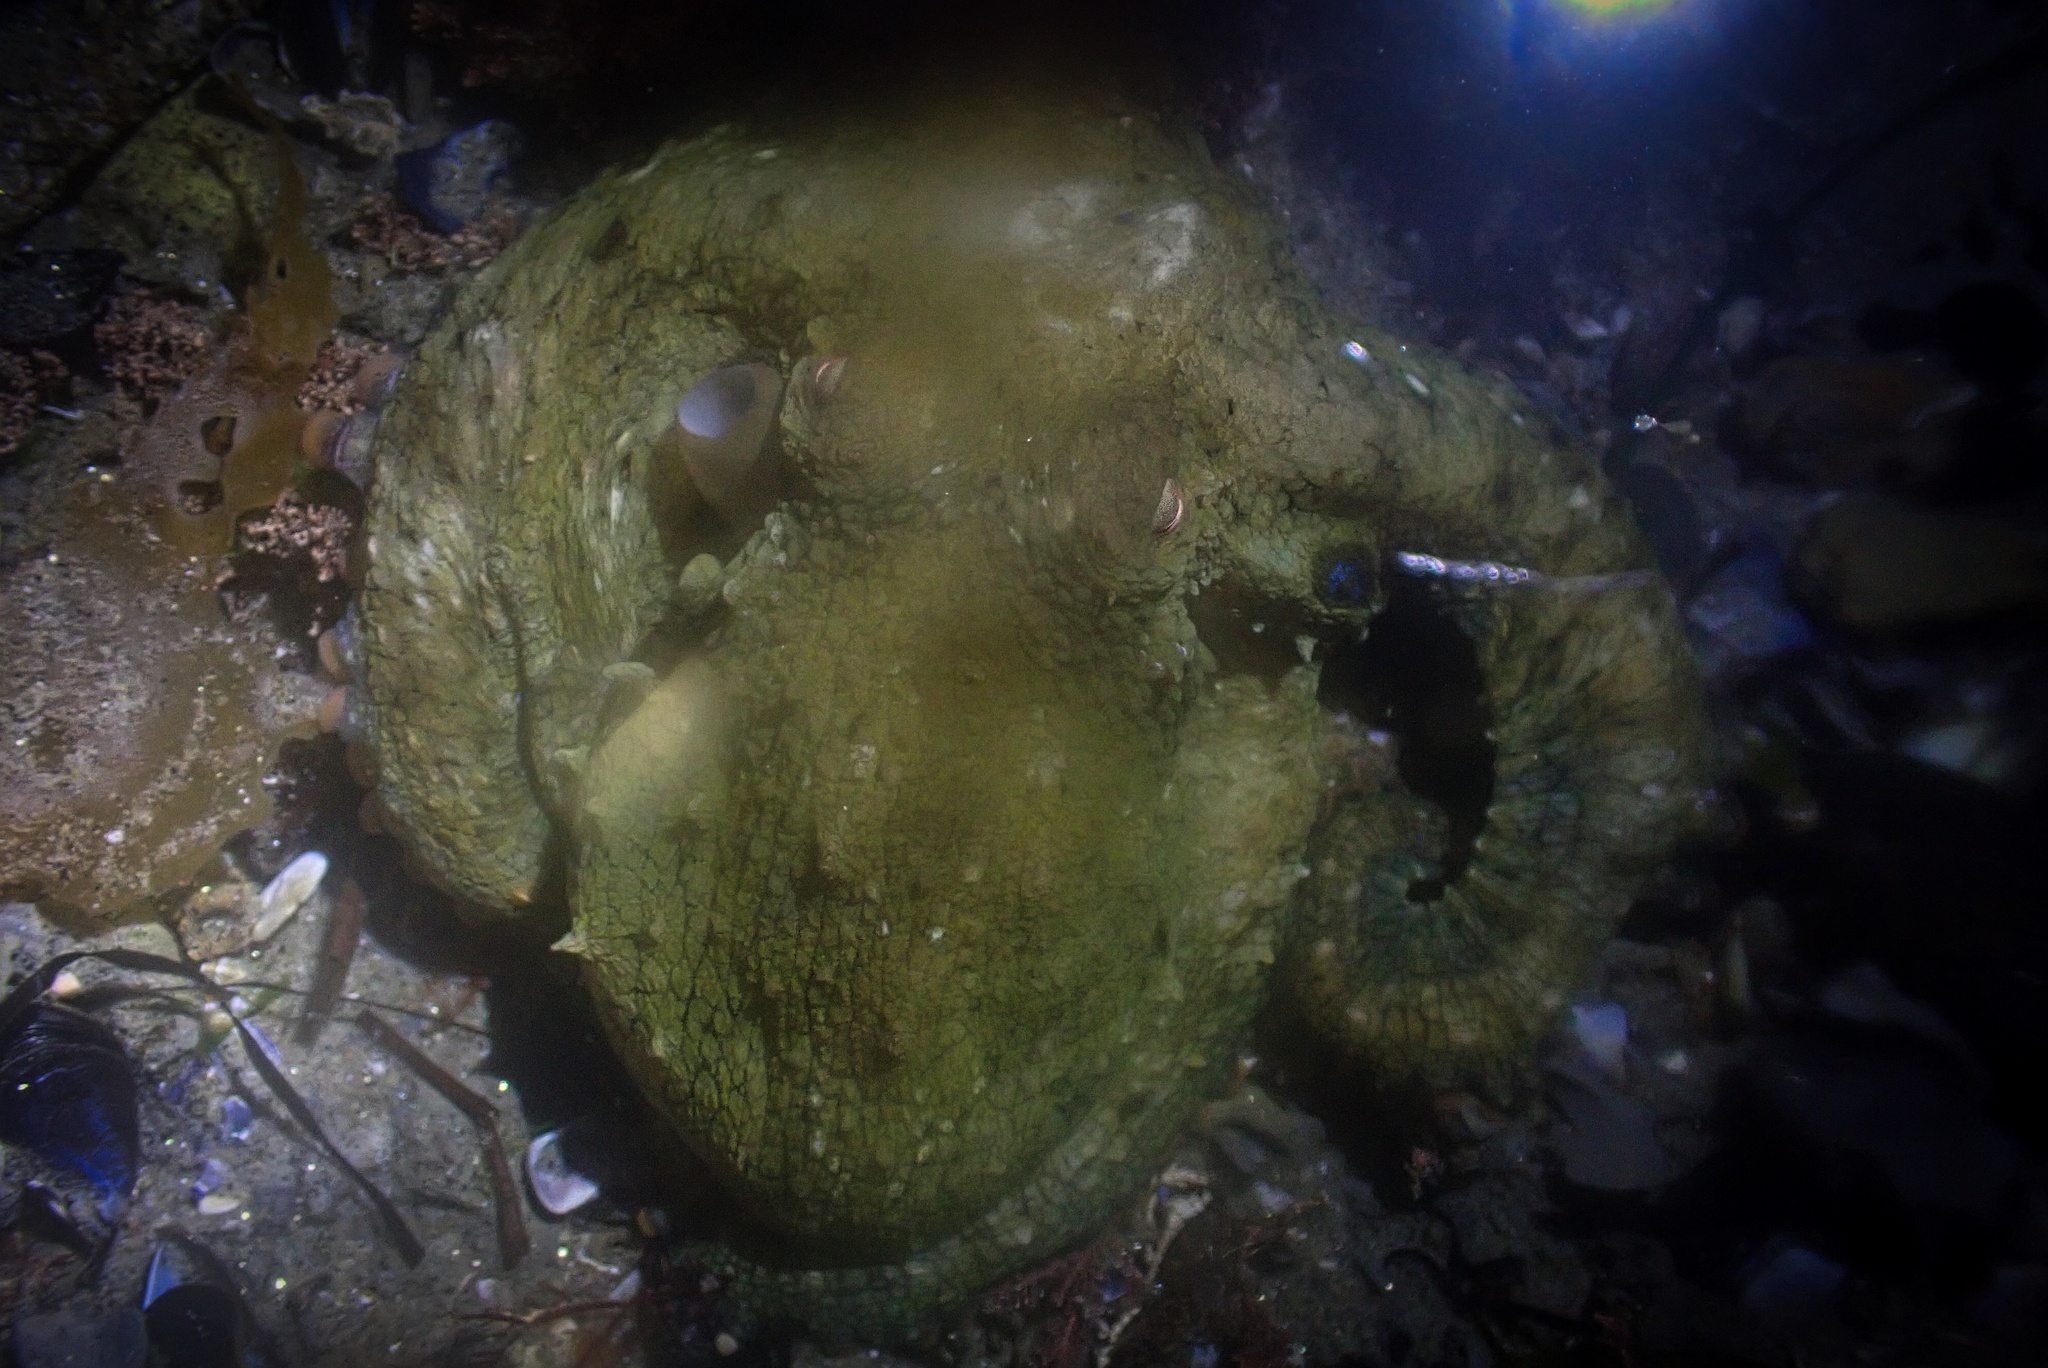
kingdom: Animalia
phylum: Mollusca
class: Cephalopoda
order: Octopoda
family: Octopodidae
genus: Octopus
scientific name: Octopus bimaculoides
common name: California two-spot octopus
